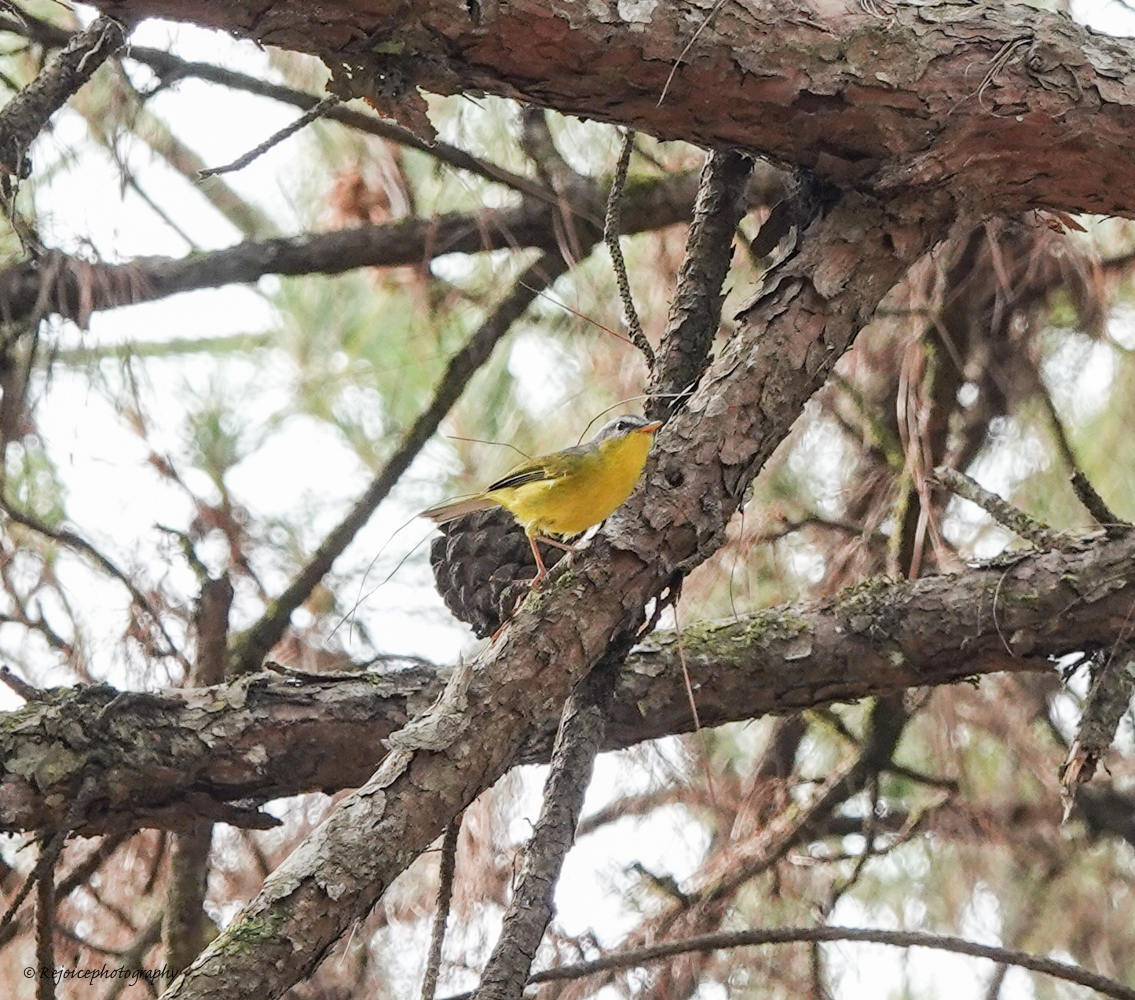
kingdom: Animalia
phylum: Chordata
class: Aves
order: Passeriformes
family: Phylloscopidae
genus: Phylloscopus
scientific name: Phylloscopus xanthoschistos
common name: Grey-hooded warbler
